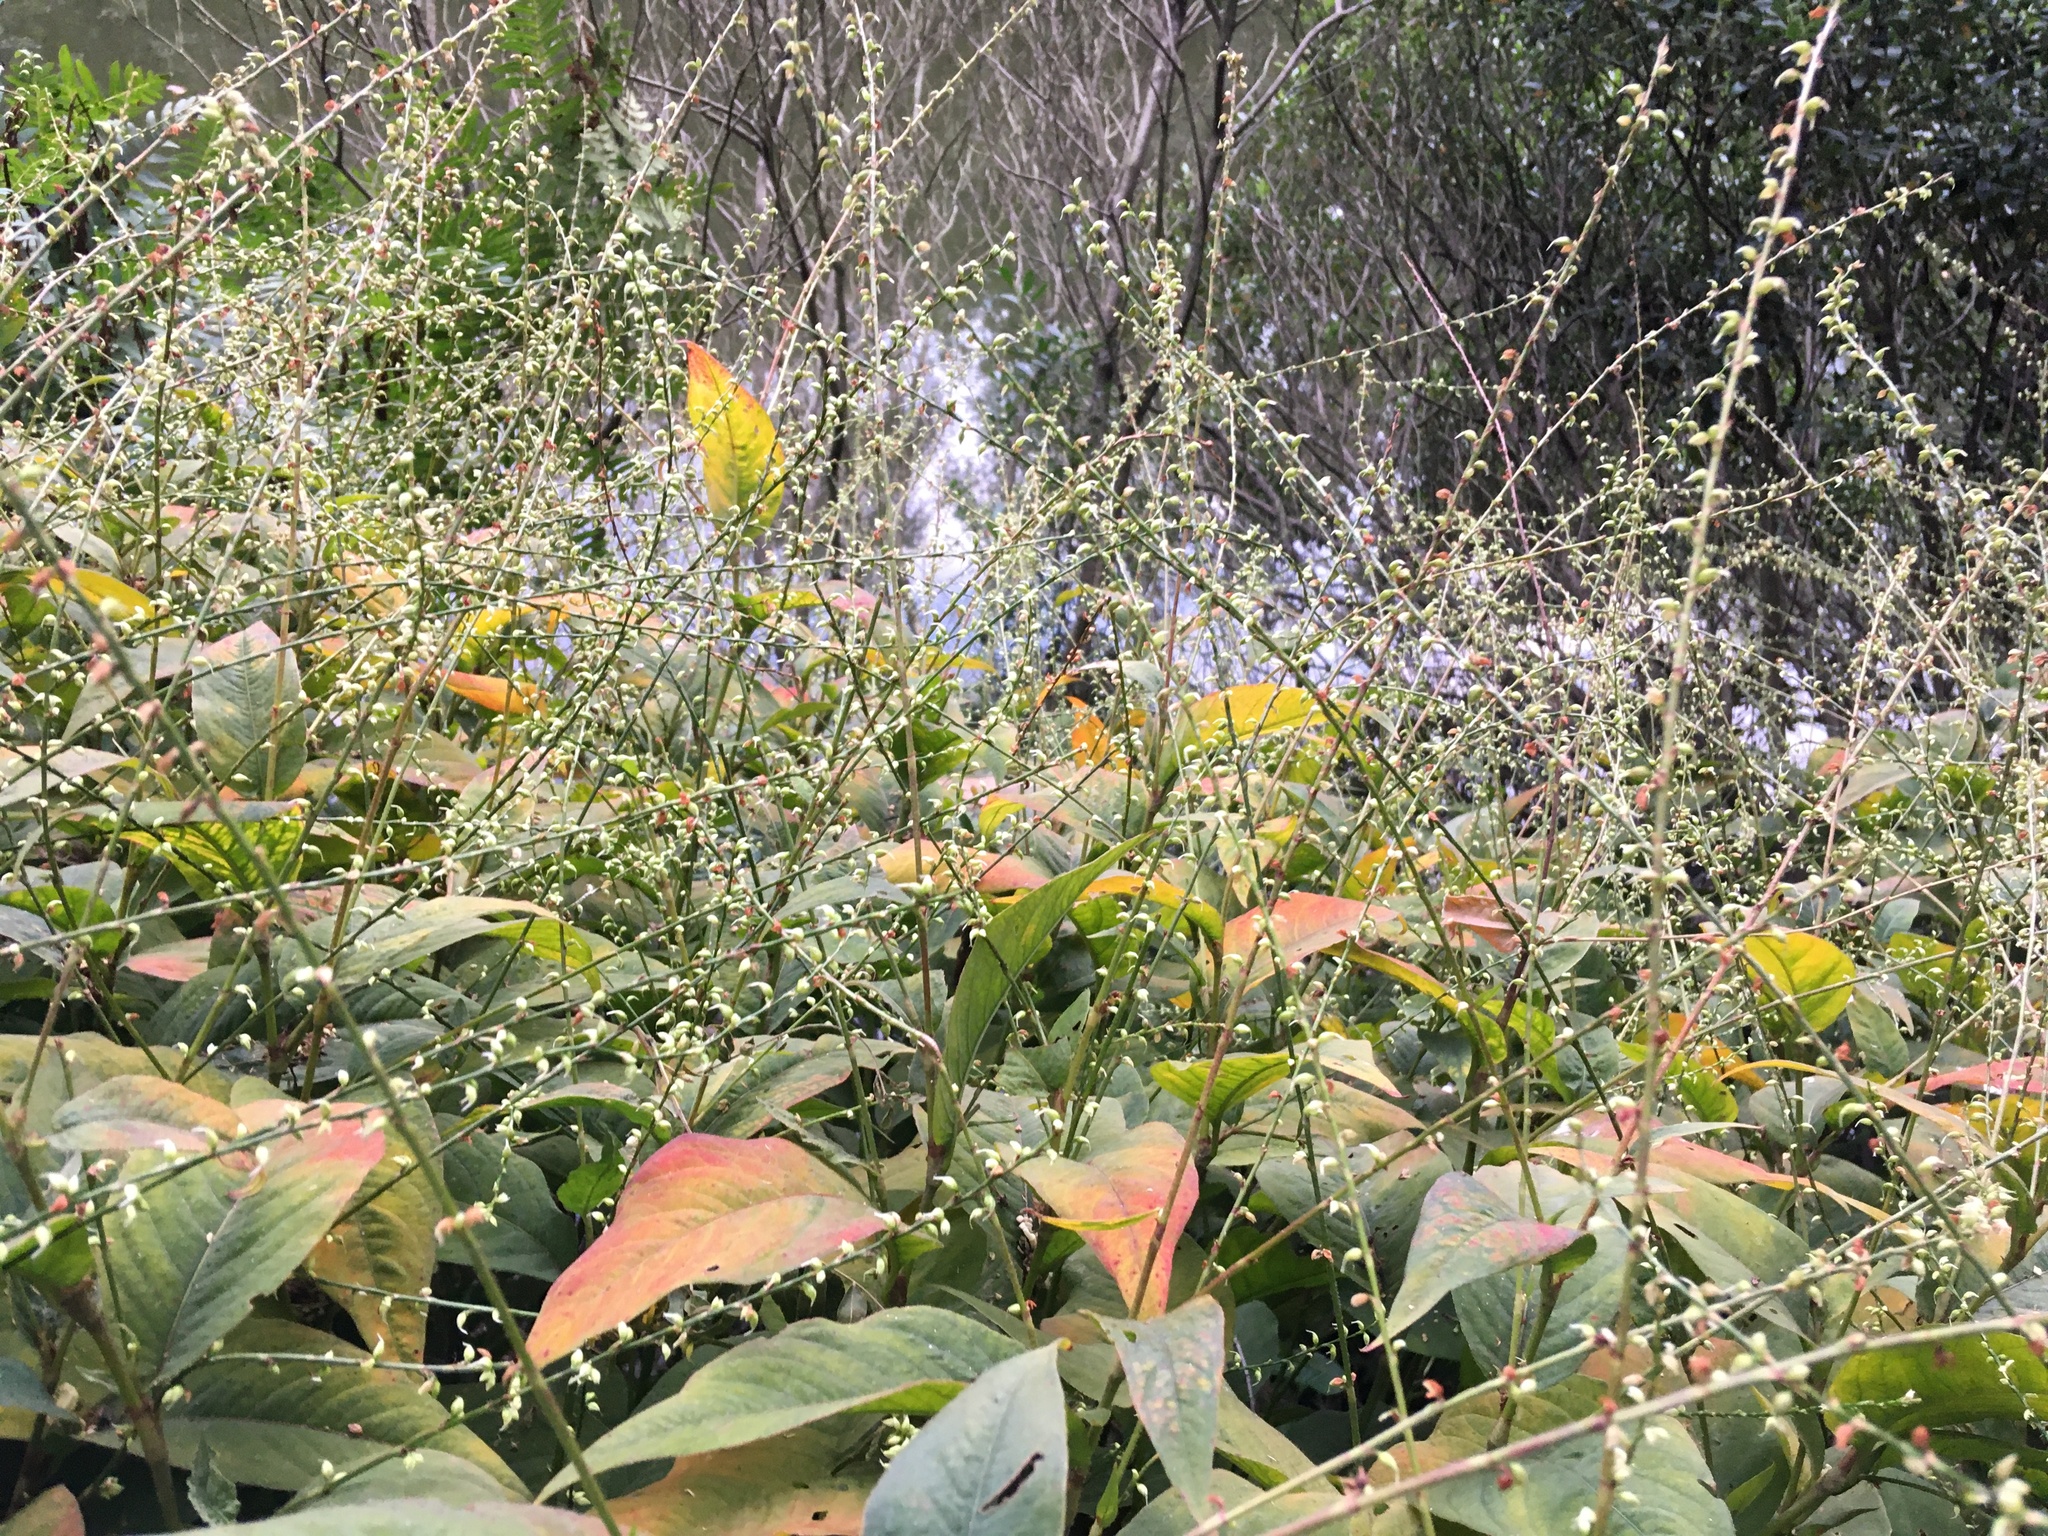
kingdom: Plantae
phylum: Tracheophyta
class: Magnoliopsida
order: Caryophyllales
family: Polygonaceae
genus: Persicaria
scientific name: Persicaria virginiana
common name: Jumpseed
